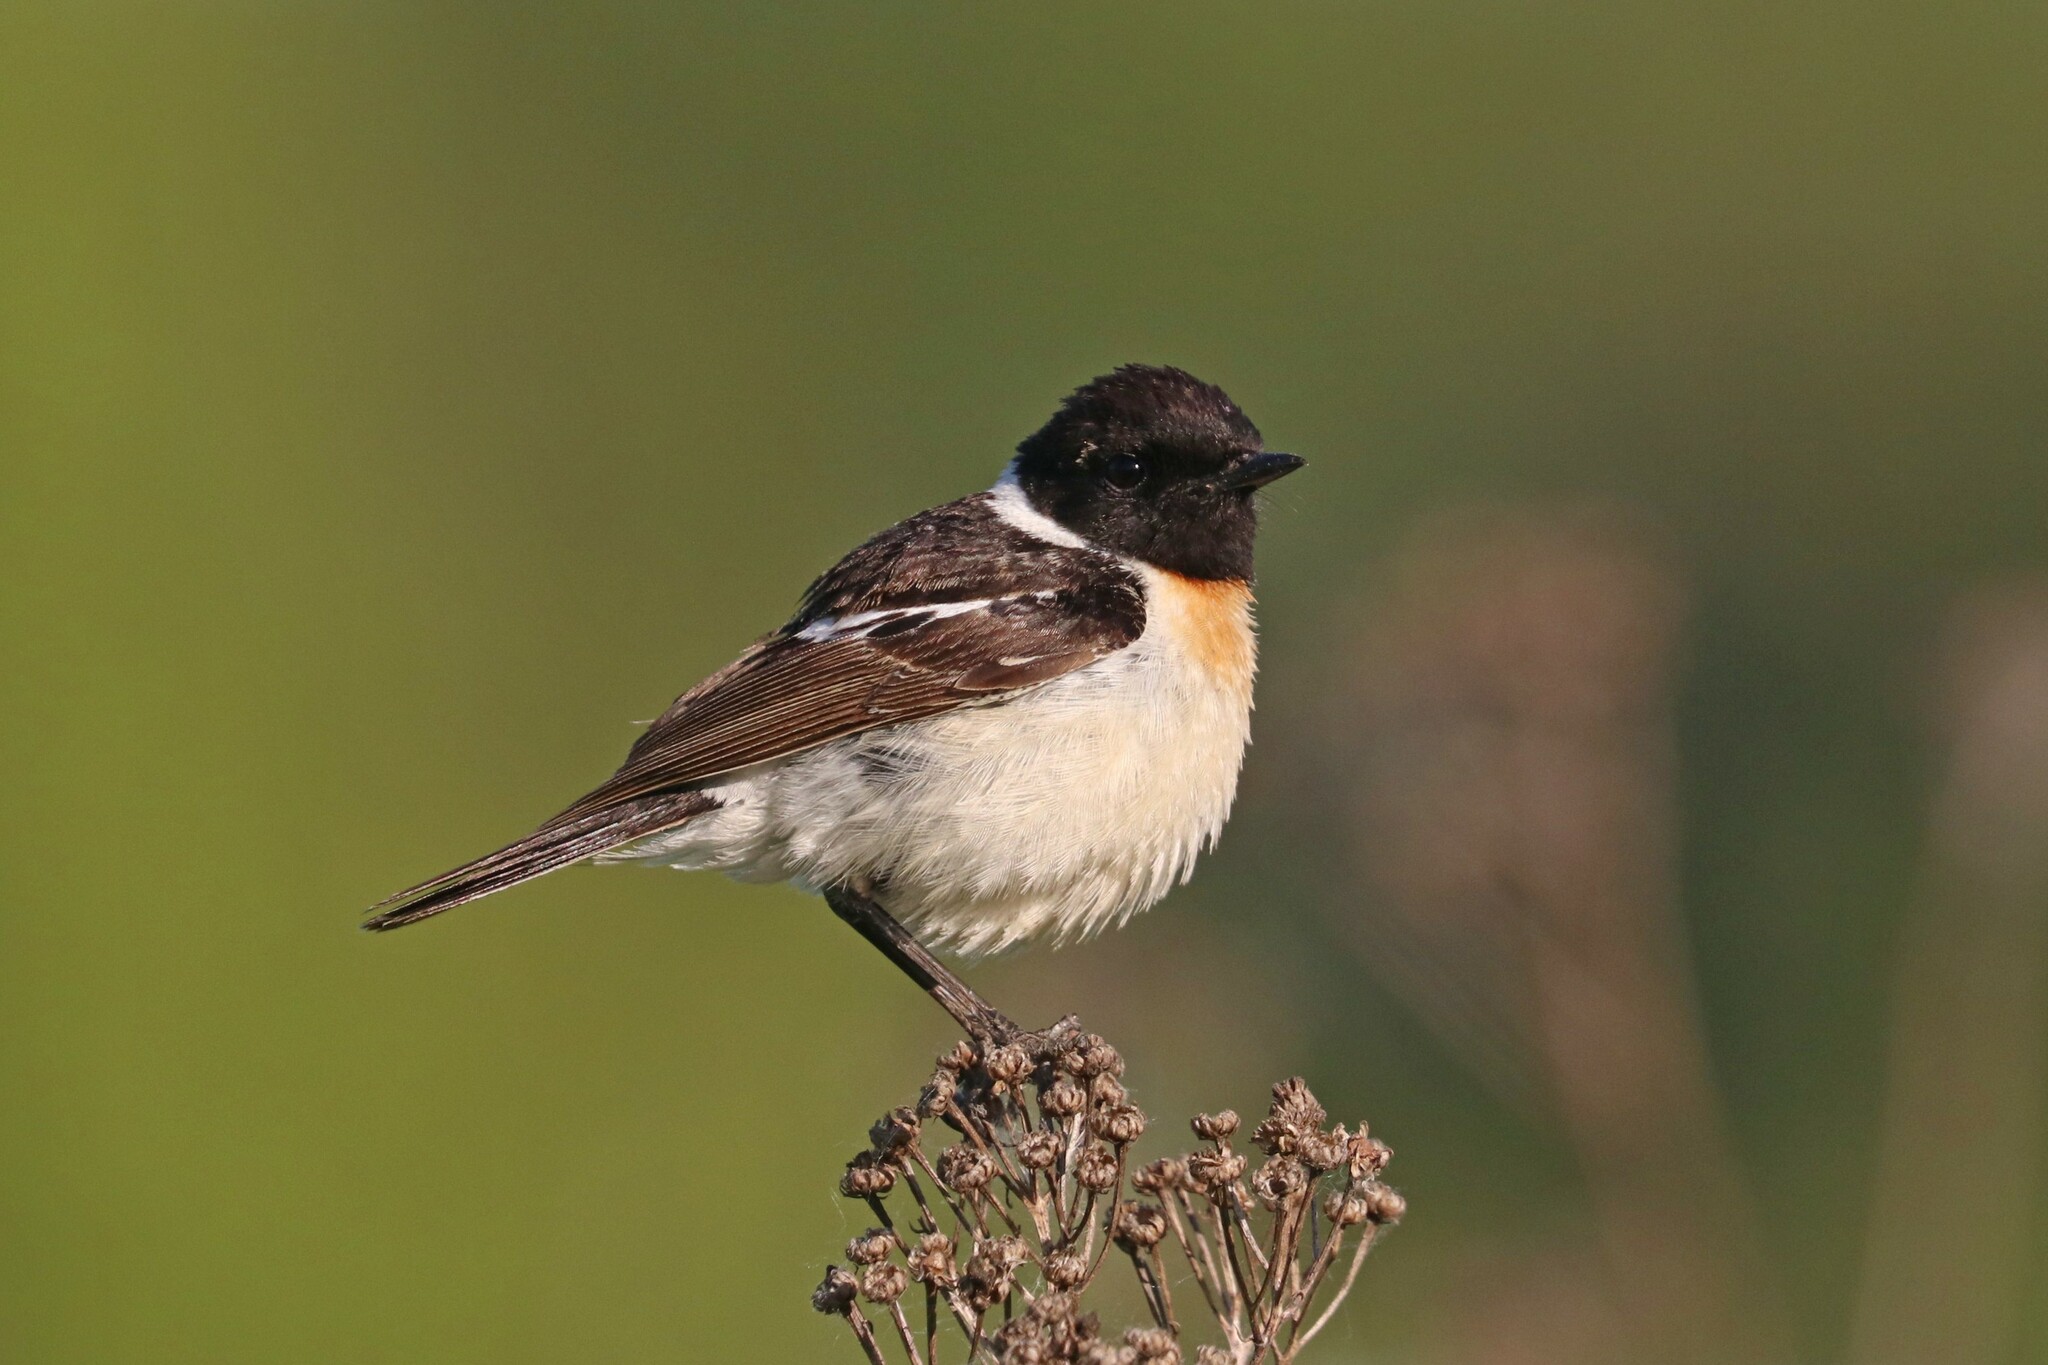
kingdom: Animalia
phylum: Chordata
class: Aves
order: Passeriformes
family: Muscicapidae
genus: Saxicola
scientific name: Saxicola maurus
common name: Siberian stonechat
